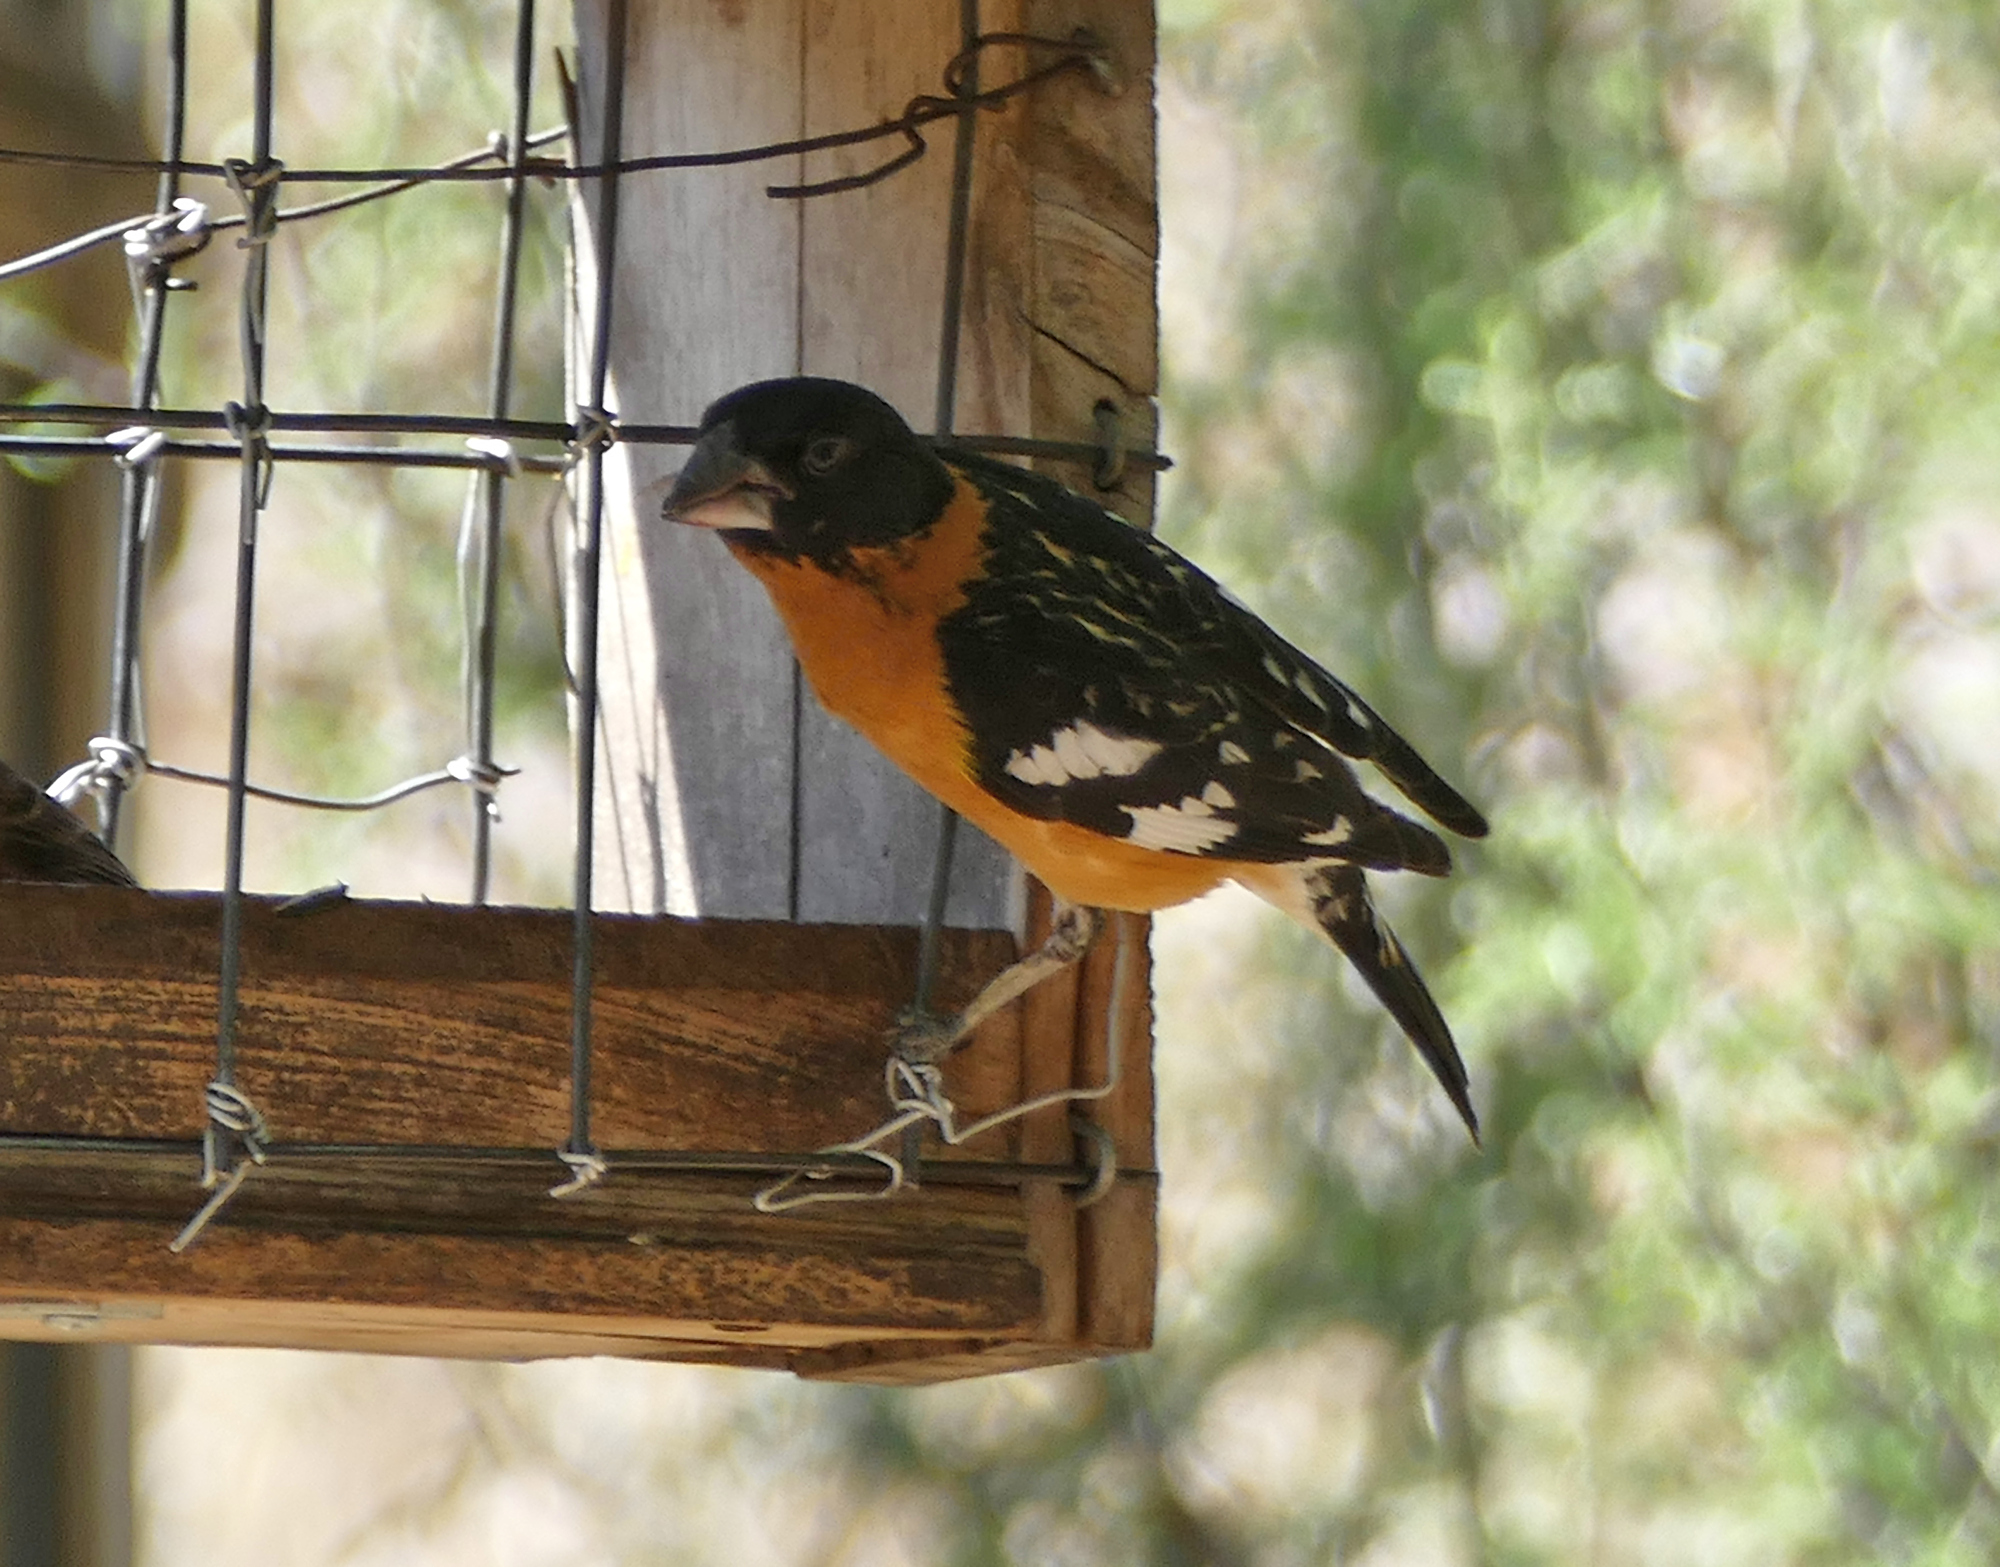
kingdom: Animalia
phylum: Chordata
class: Aves
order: Passeriformes
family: Cardinalidae
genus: Pheucticus
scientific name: Pheucticus melanocephalus
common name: Black-headed grosbeak
